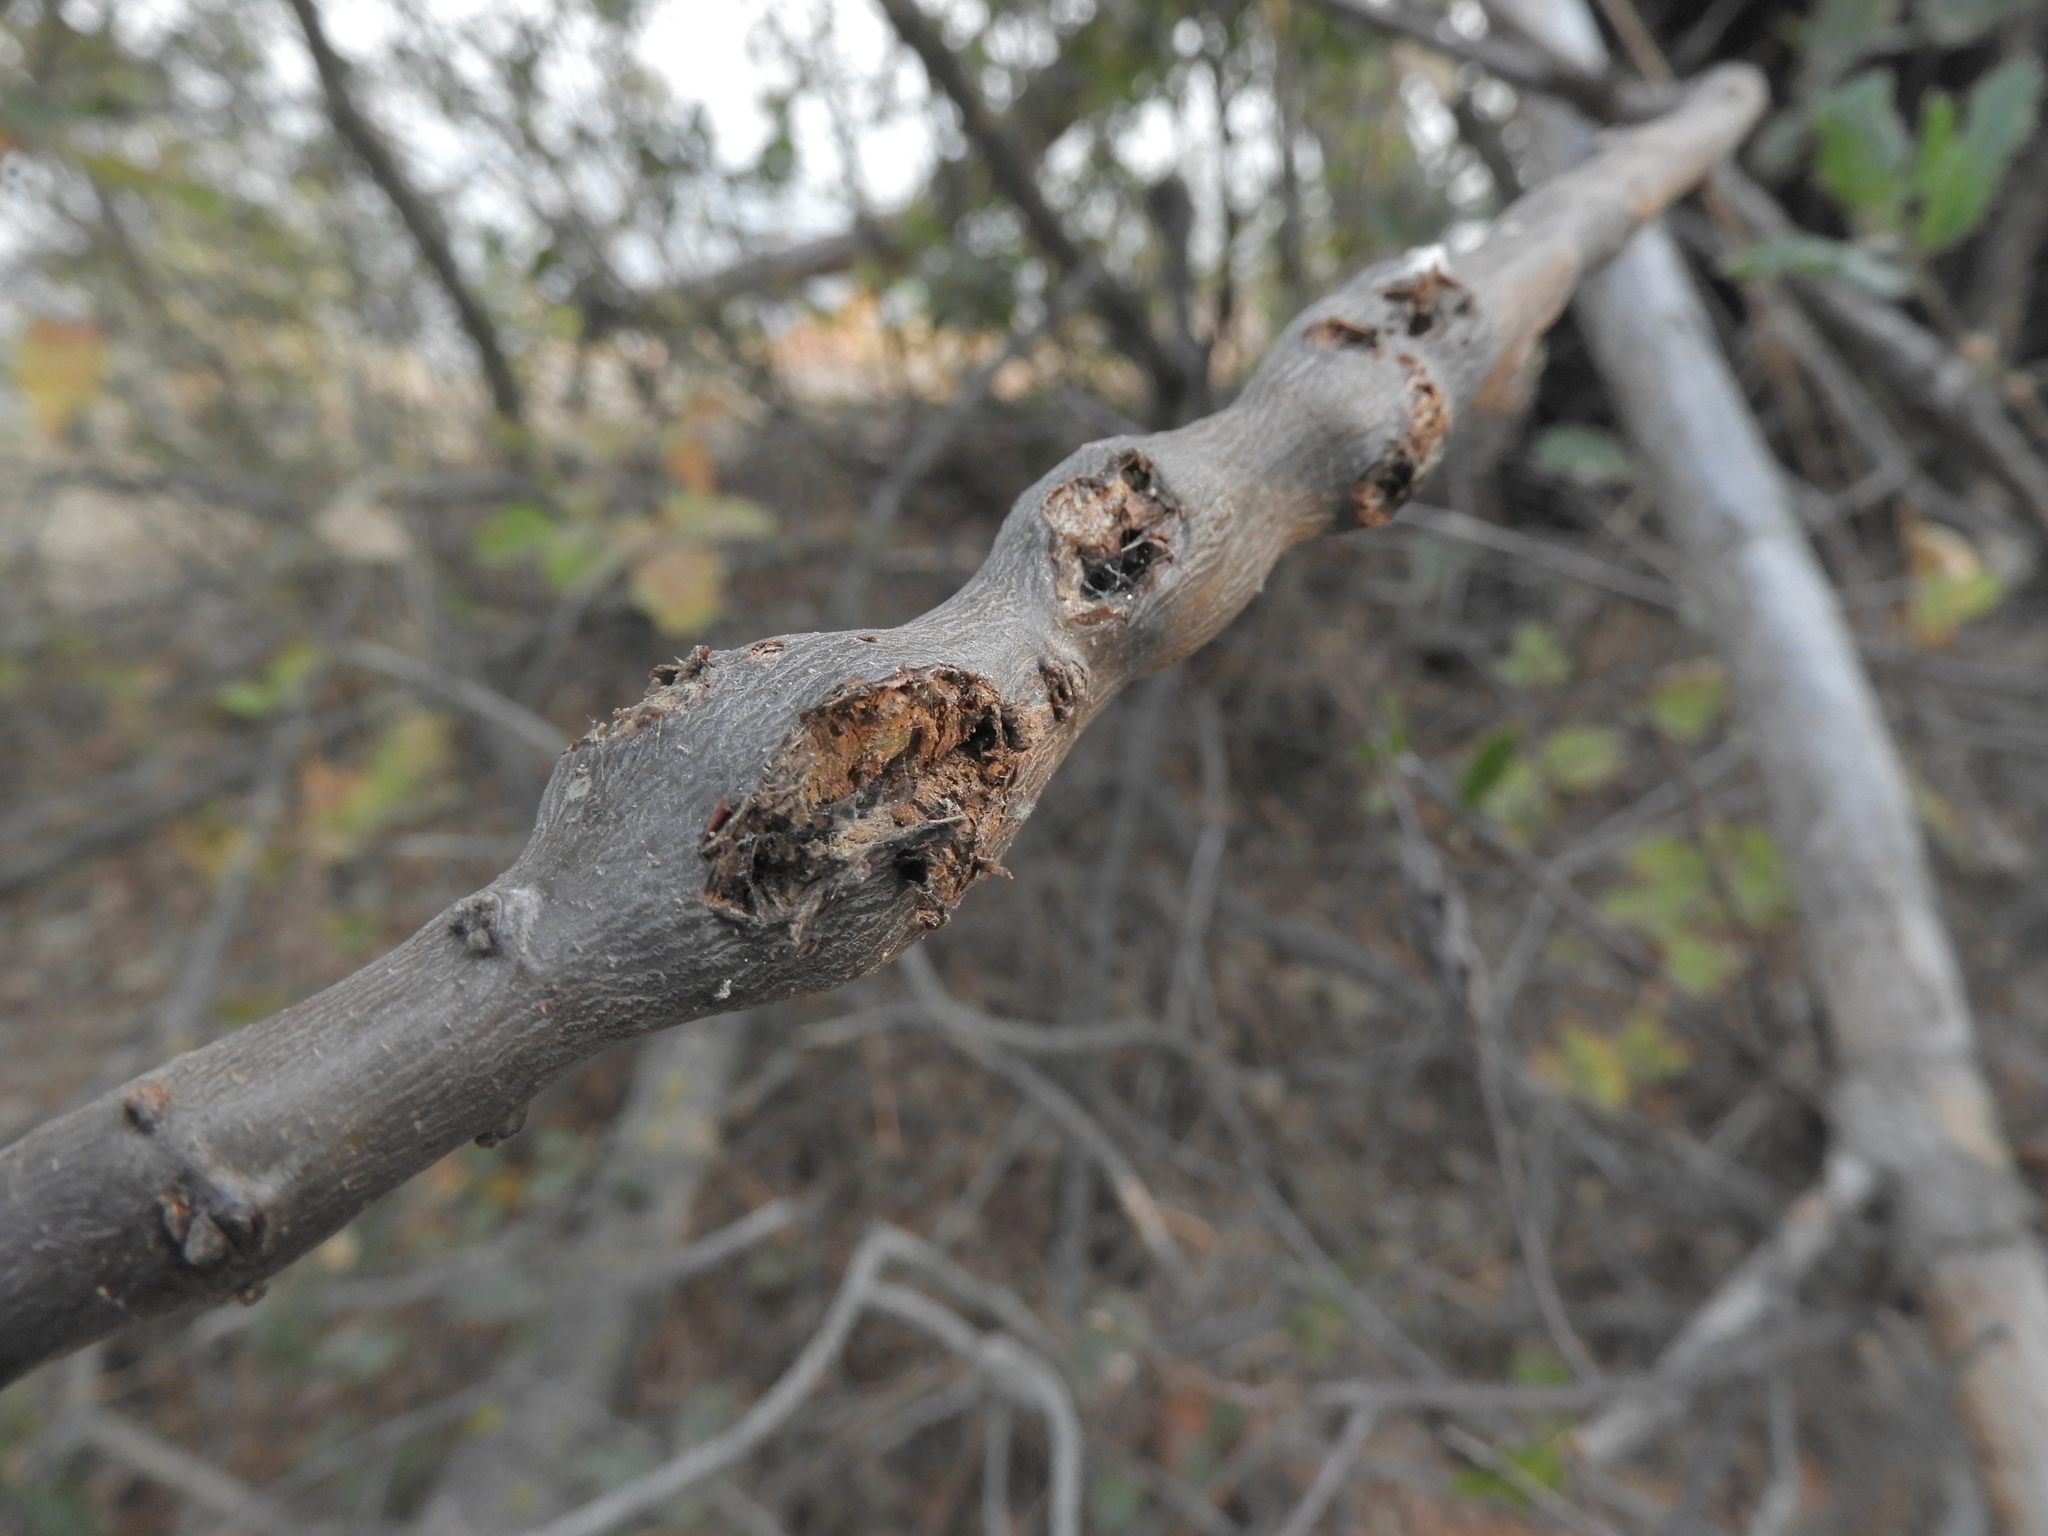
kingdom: Animalia
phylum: Arthropoda
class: Insecta
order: Hymenoptera
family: Cynipidae
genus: Callirhytis
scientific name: Callirhytis
